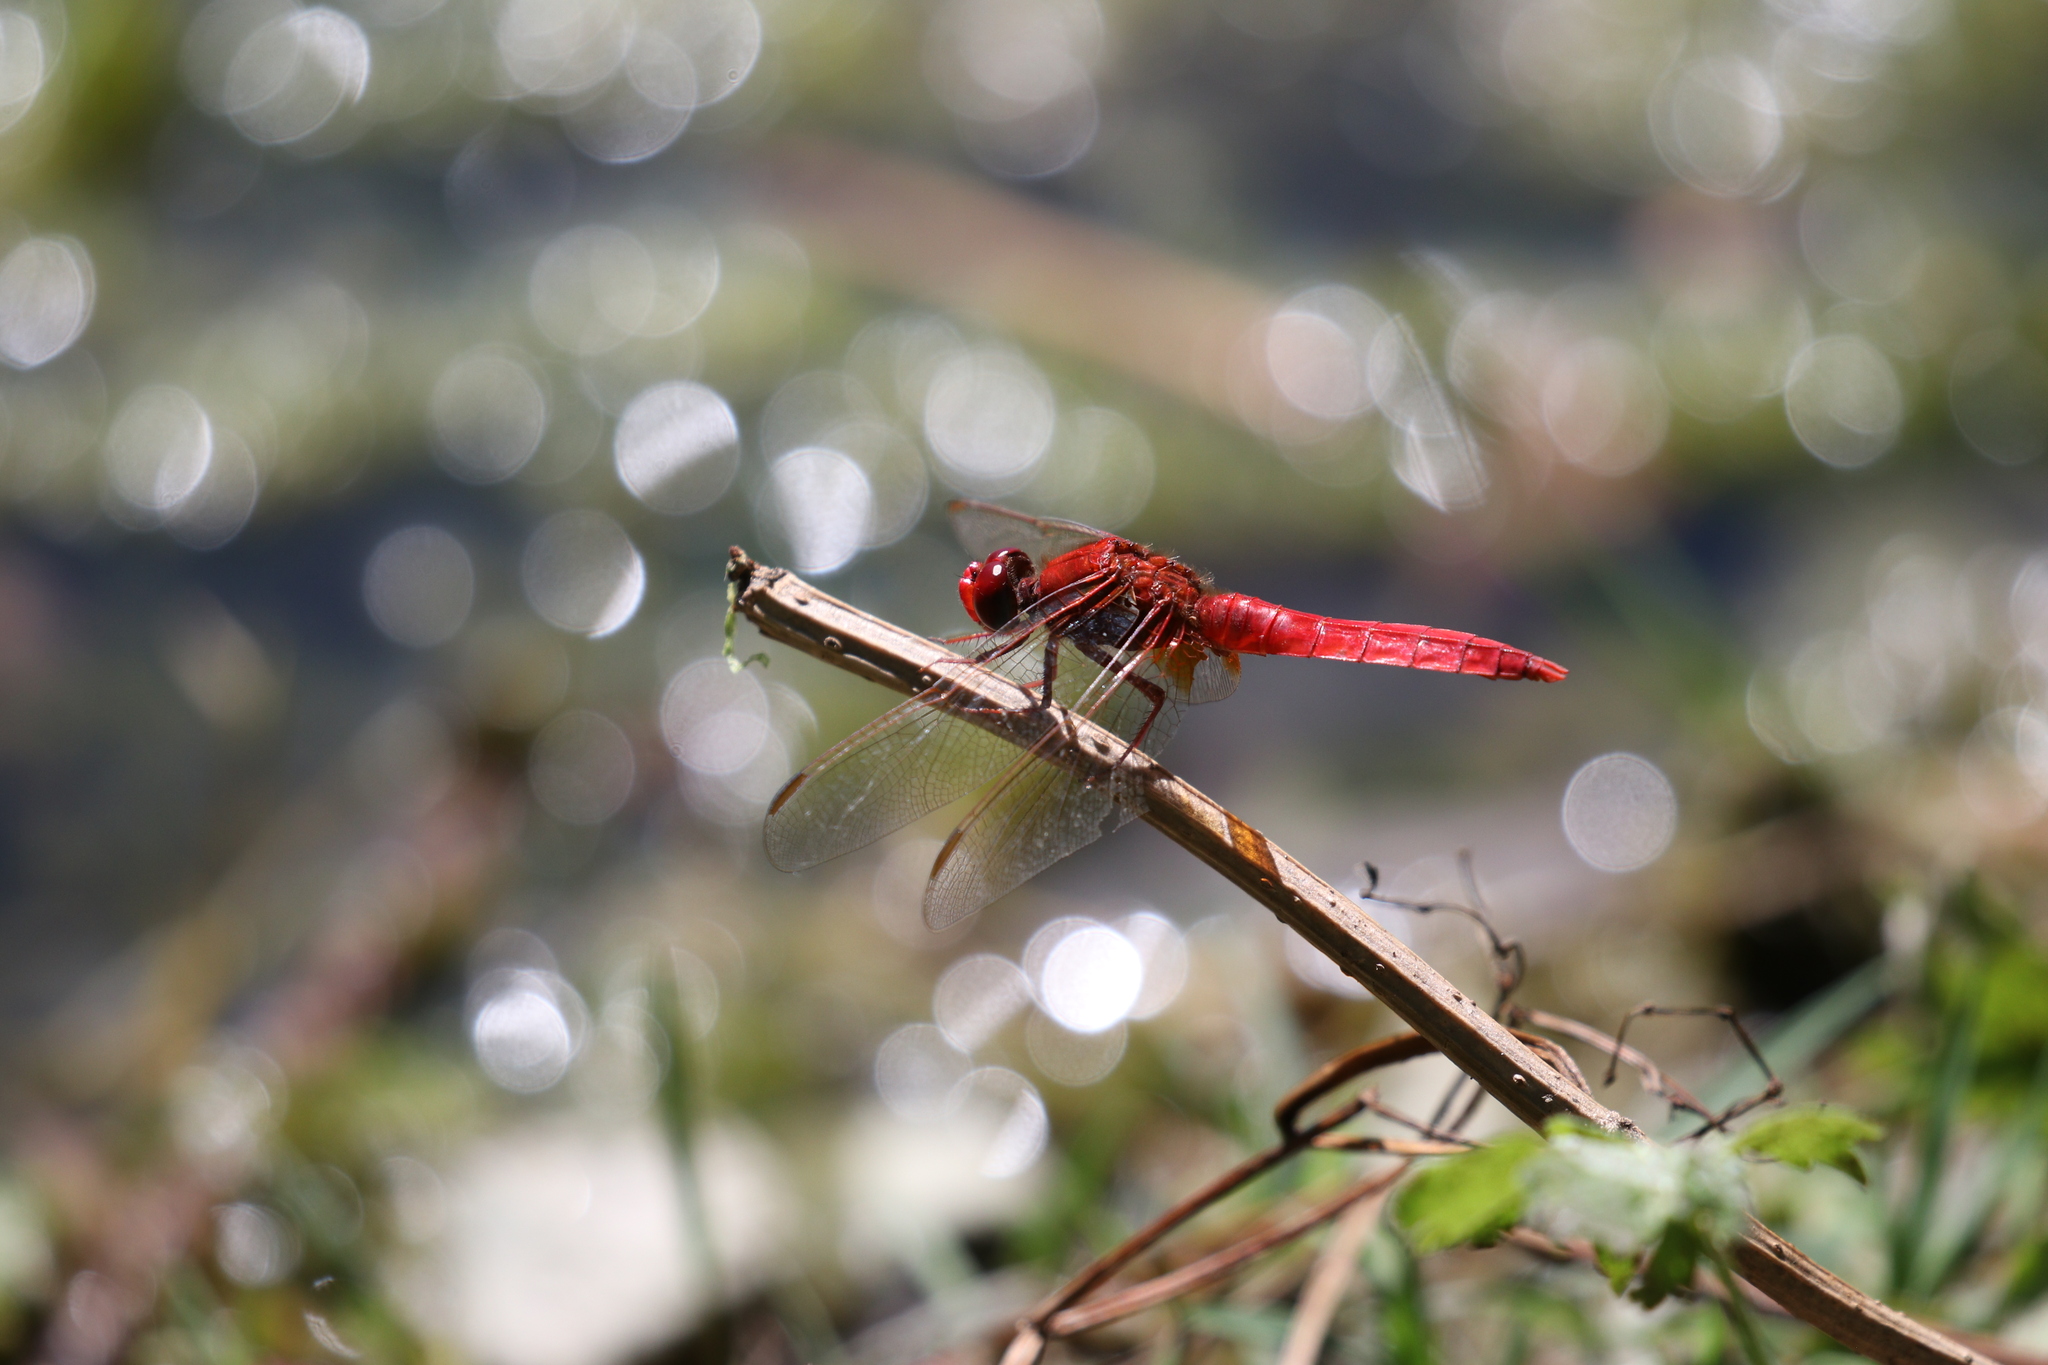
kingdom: Animalia
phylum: Arthropoda
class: Insecta
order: Odonata
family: Libellulidae
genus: Crocothemis
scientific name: Crocothemis erythraea
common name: Scarlet dragonfly
